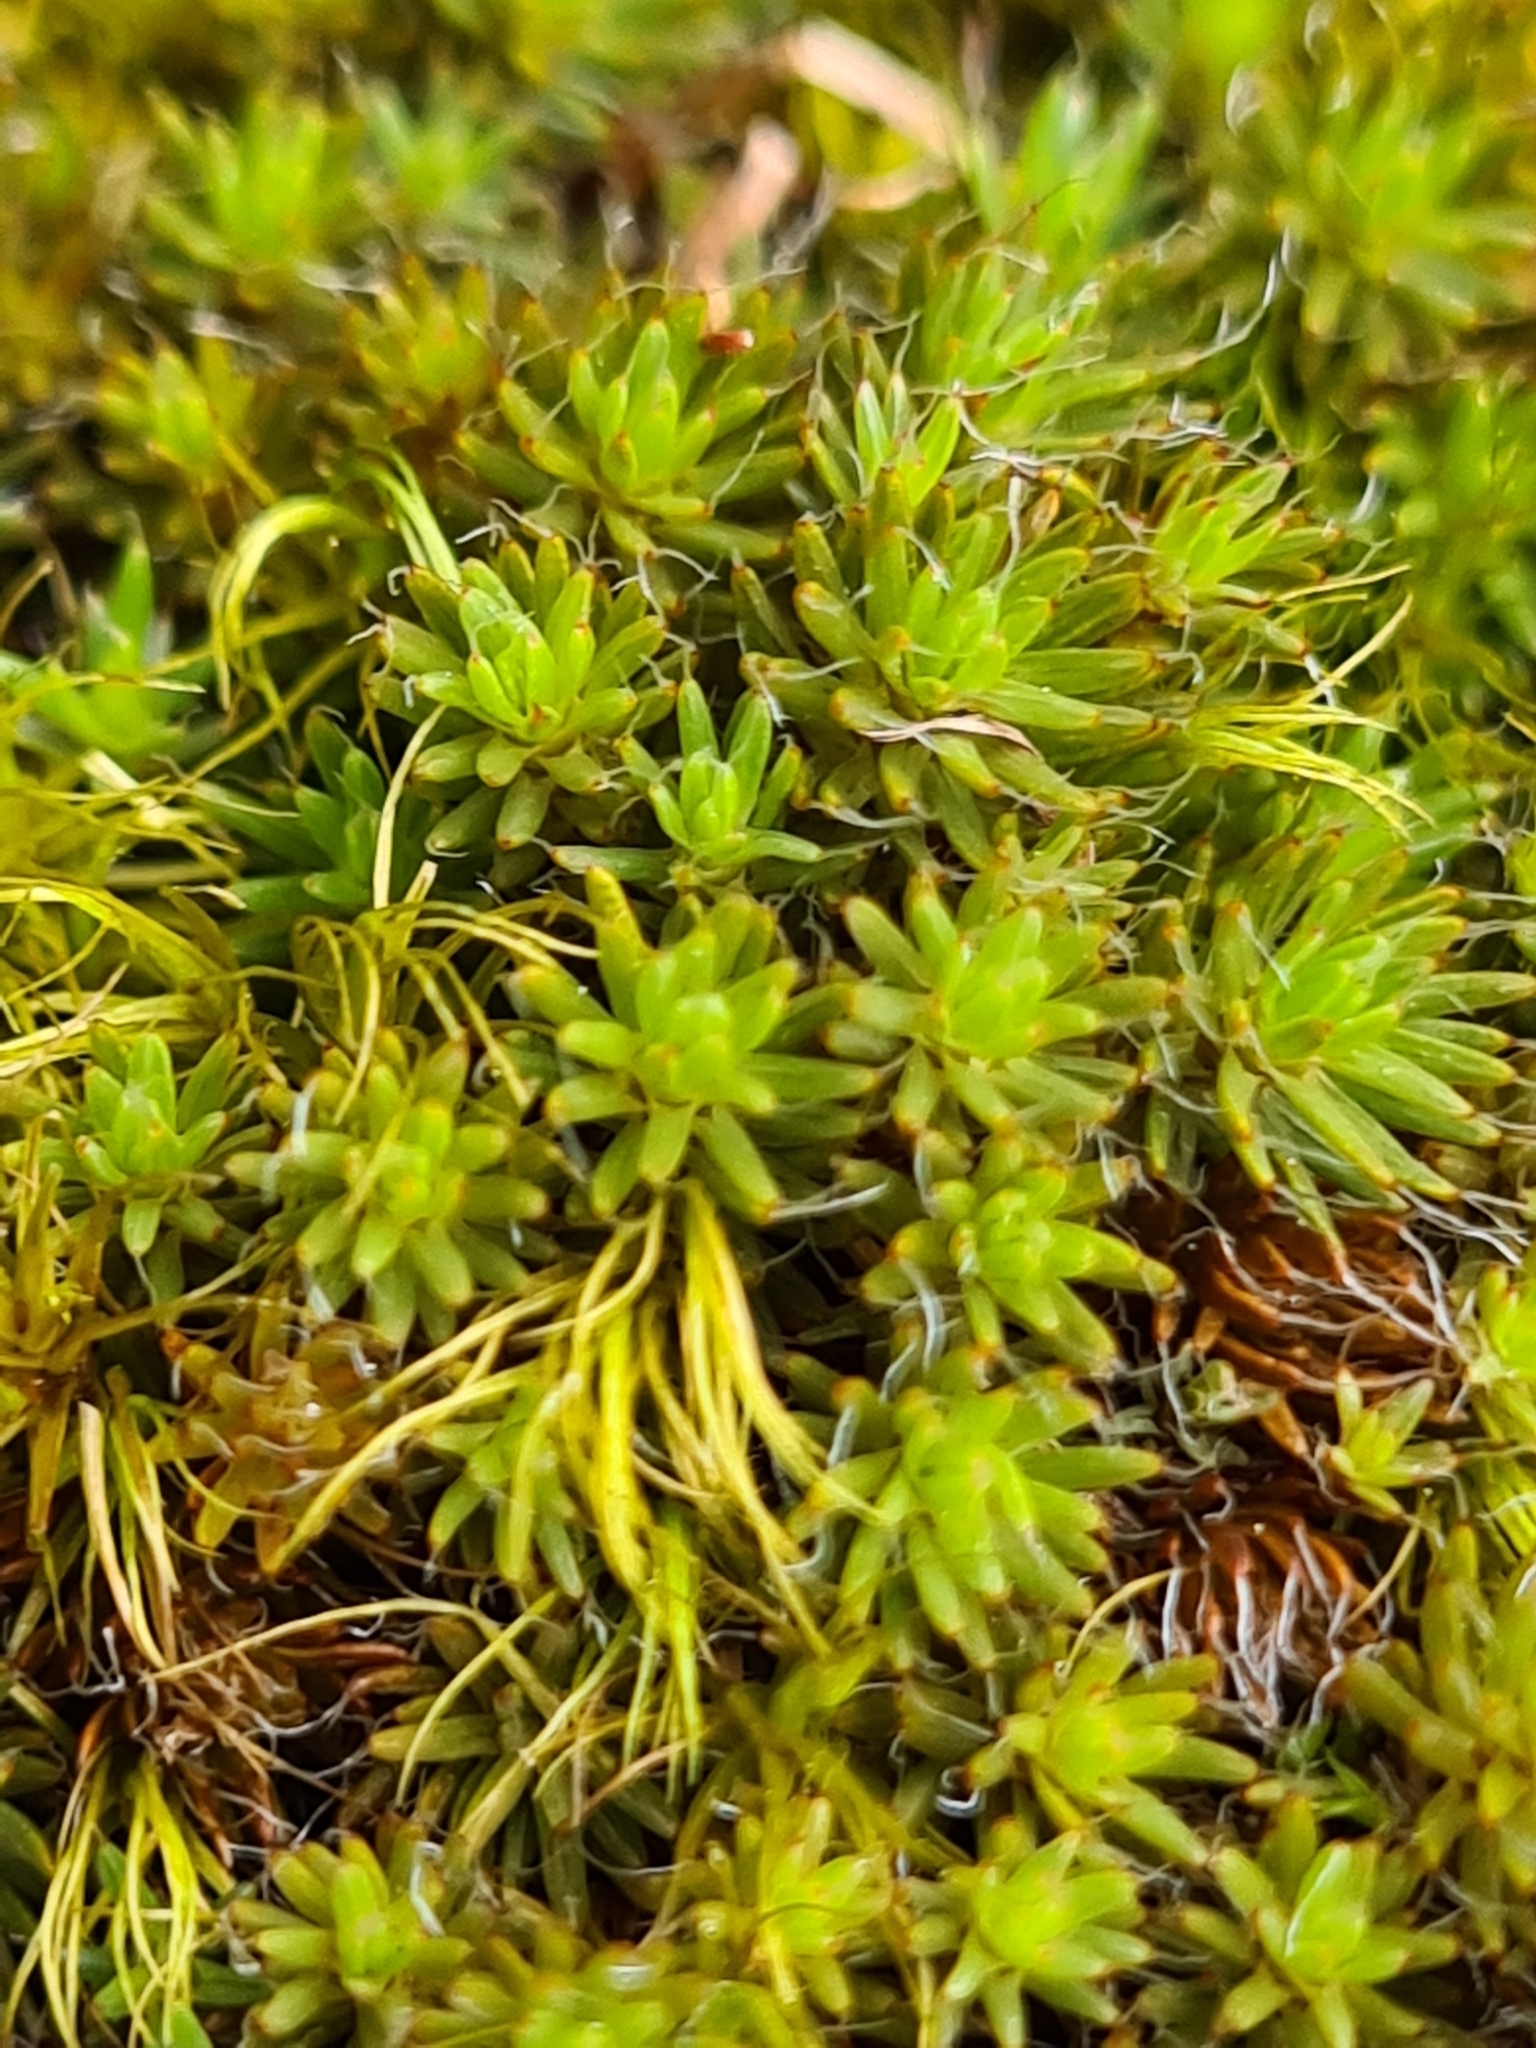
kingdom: Plantae
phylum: Bryophyta
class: Polytrichopsida
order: Polytrichales
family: Polytrichaceae
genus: Polytrichum
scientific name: Polytrichum piliferum
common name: Bristly haircap
